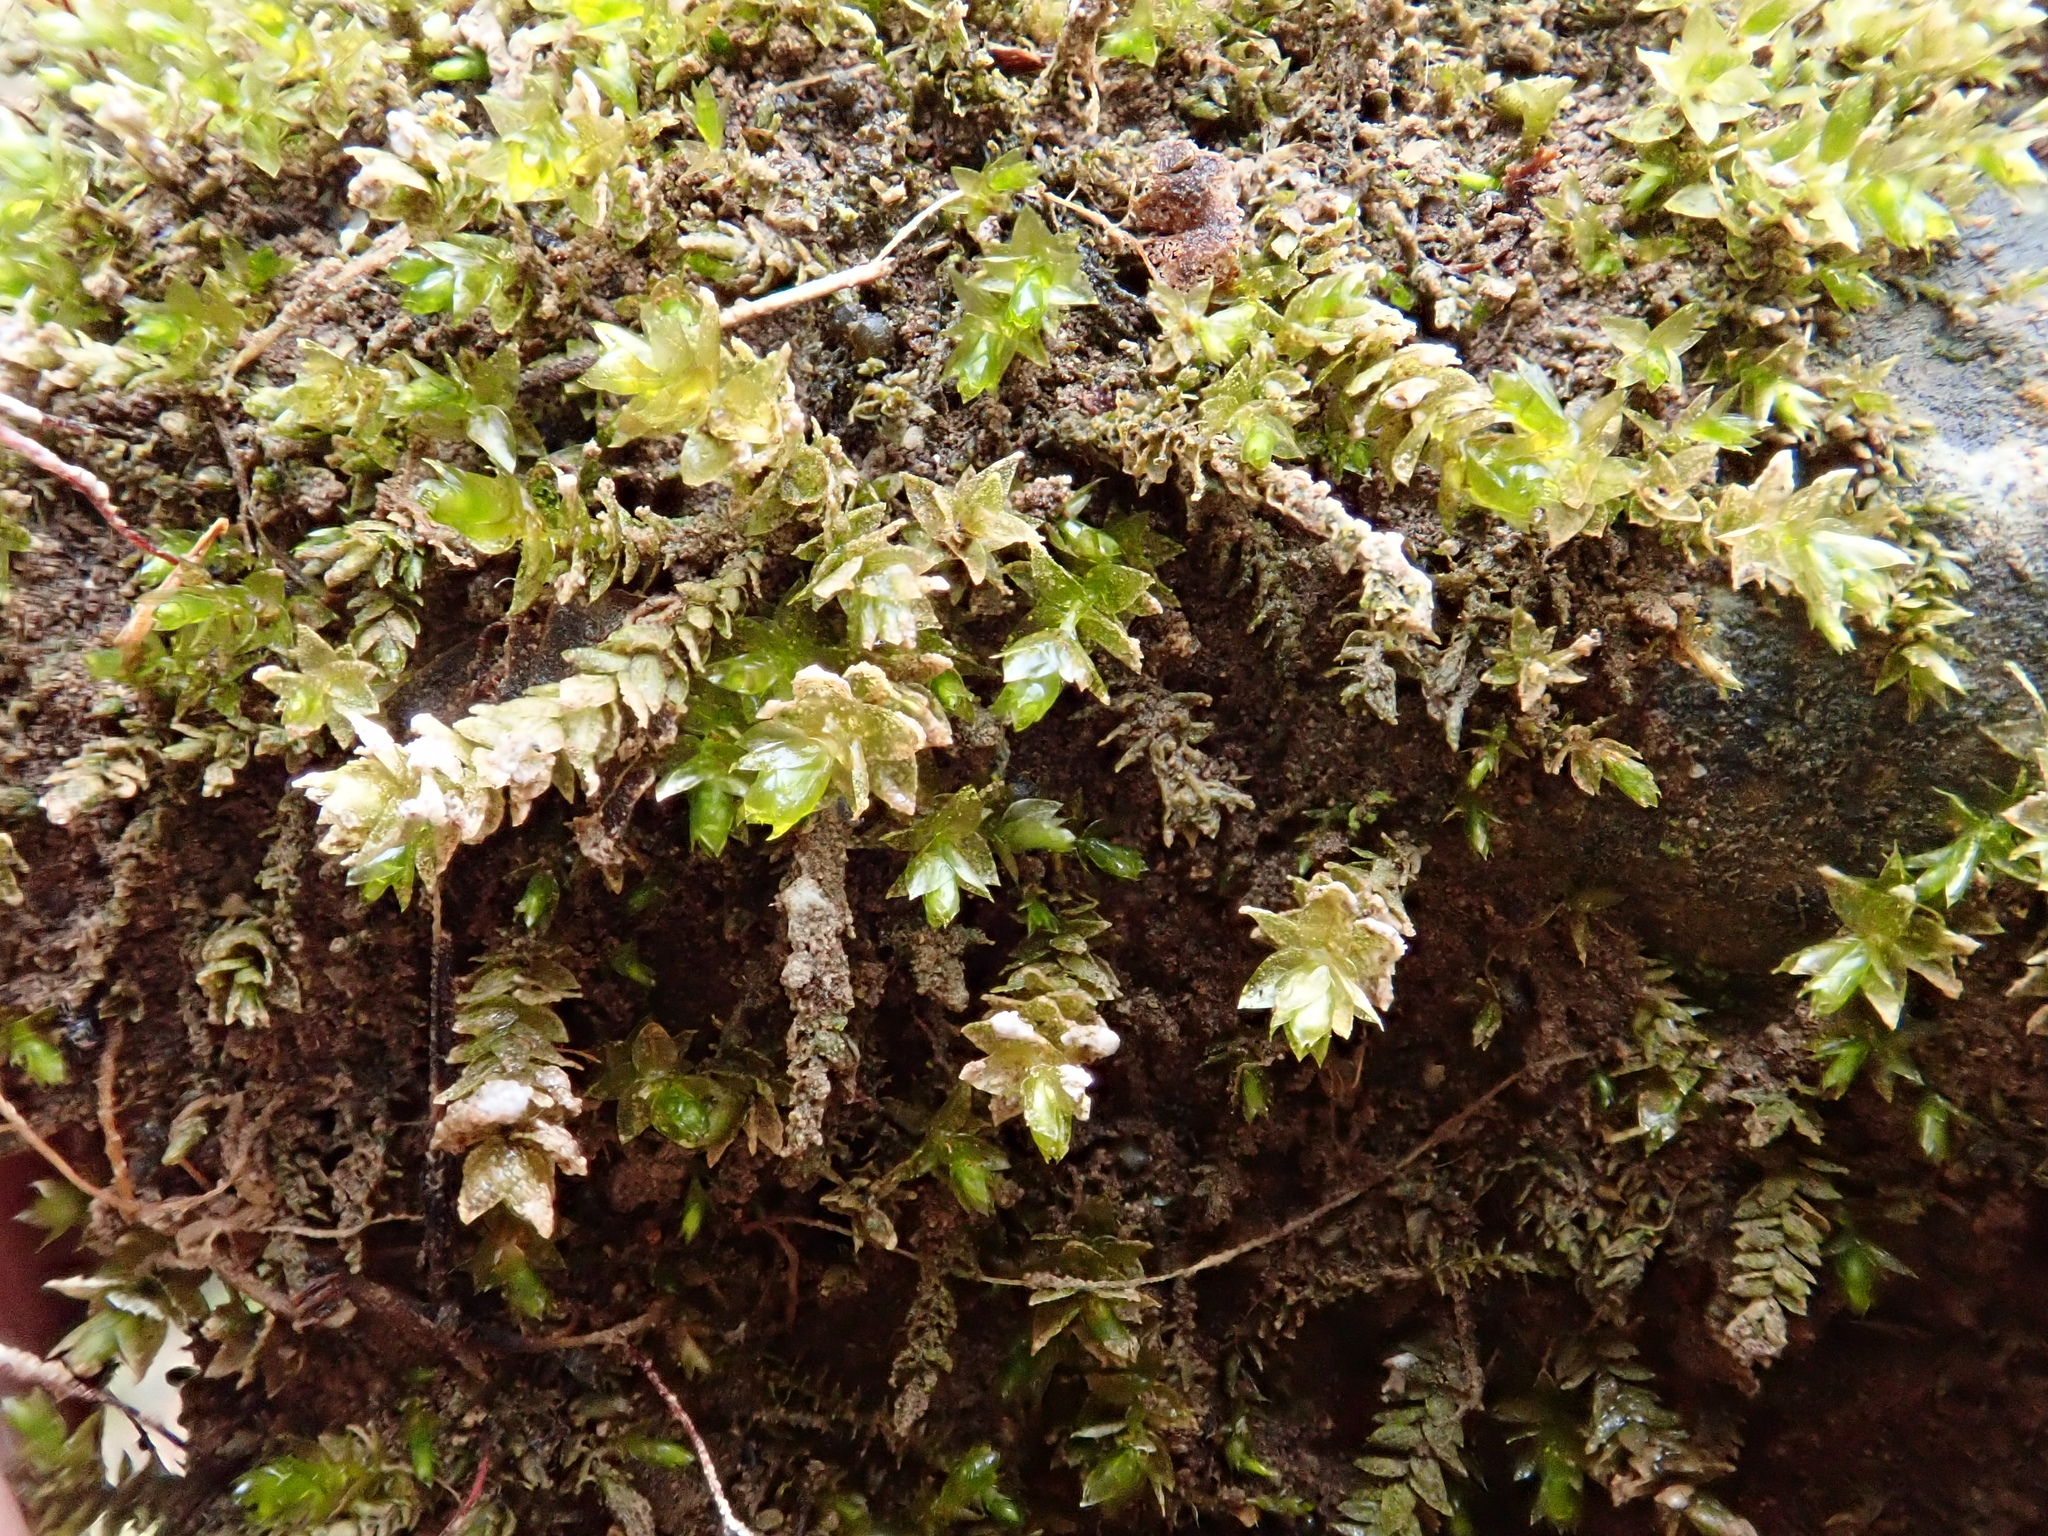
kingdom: Plantae
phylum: Bryophyta
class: Bryopsida
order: Hypnales
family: Brachytheciaceae
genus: Rhynchostegium
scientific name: Rhynchostegium riparioides
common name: Platyhypnidium moss
